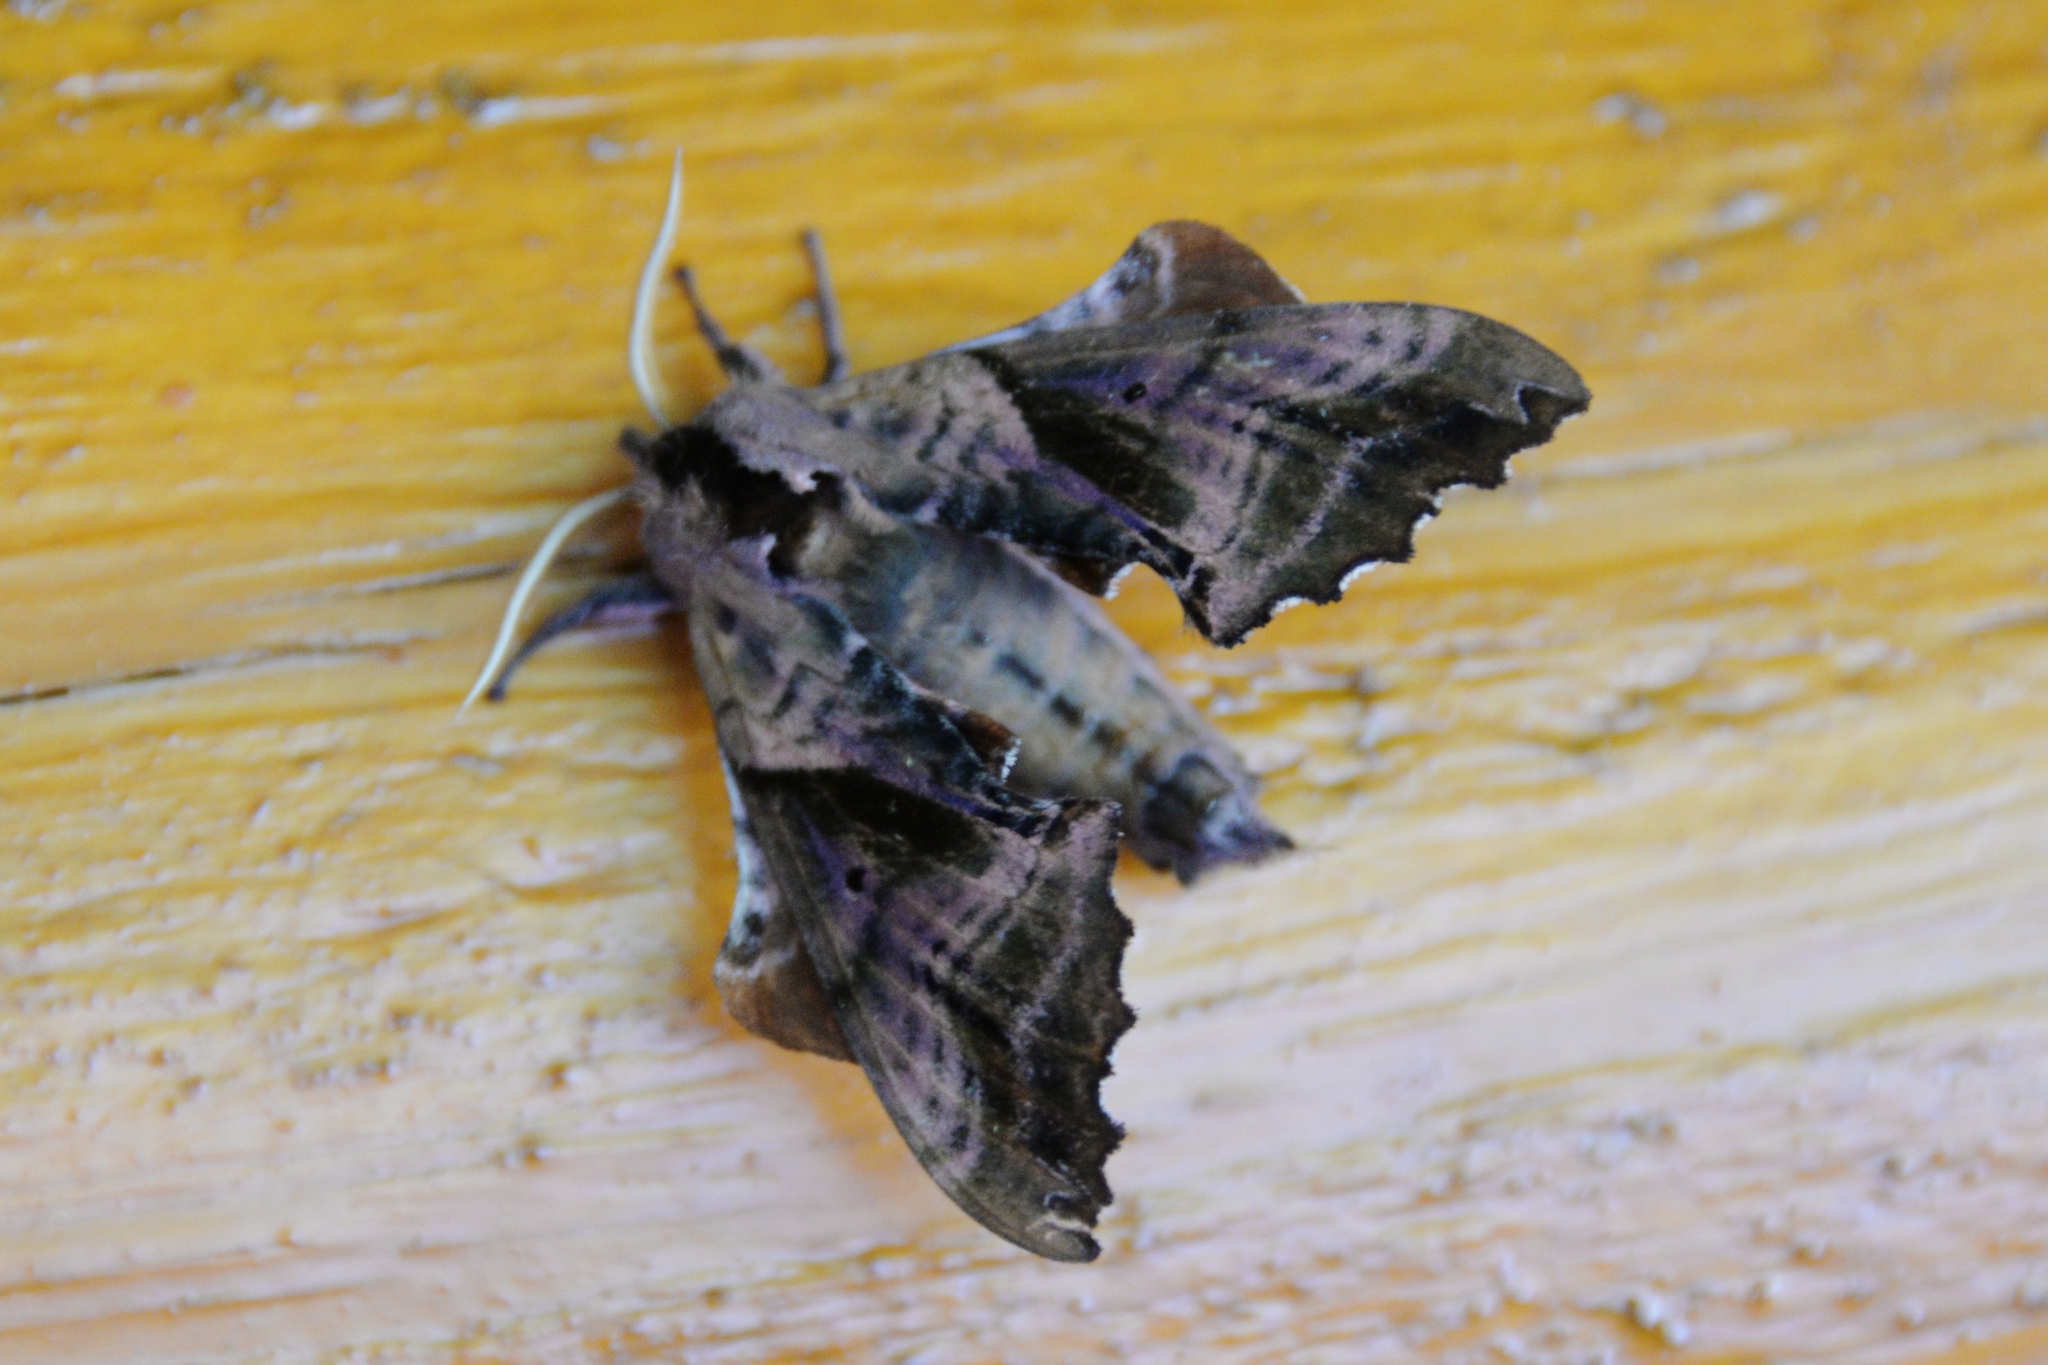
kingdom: Animalia
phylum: Arthropoda
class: Insecta
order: Lepidoptera
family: Sphingidae
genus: Paonias
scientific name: Paonias excaecata
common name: Blind-eyed sphinx
